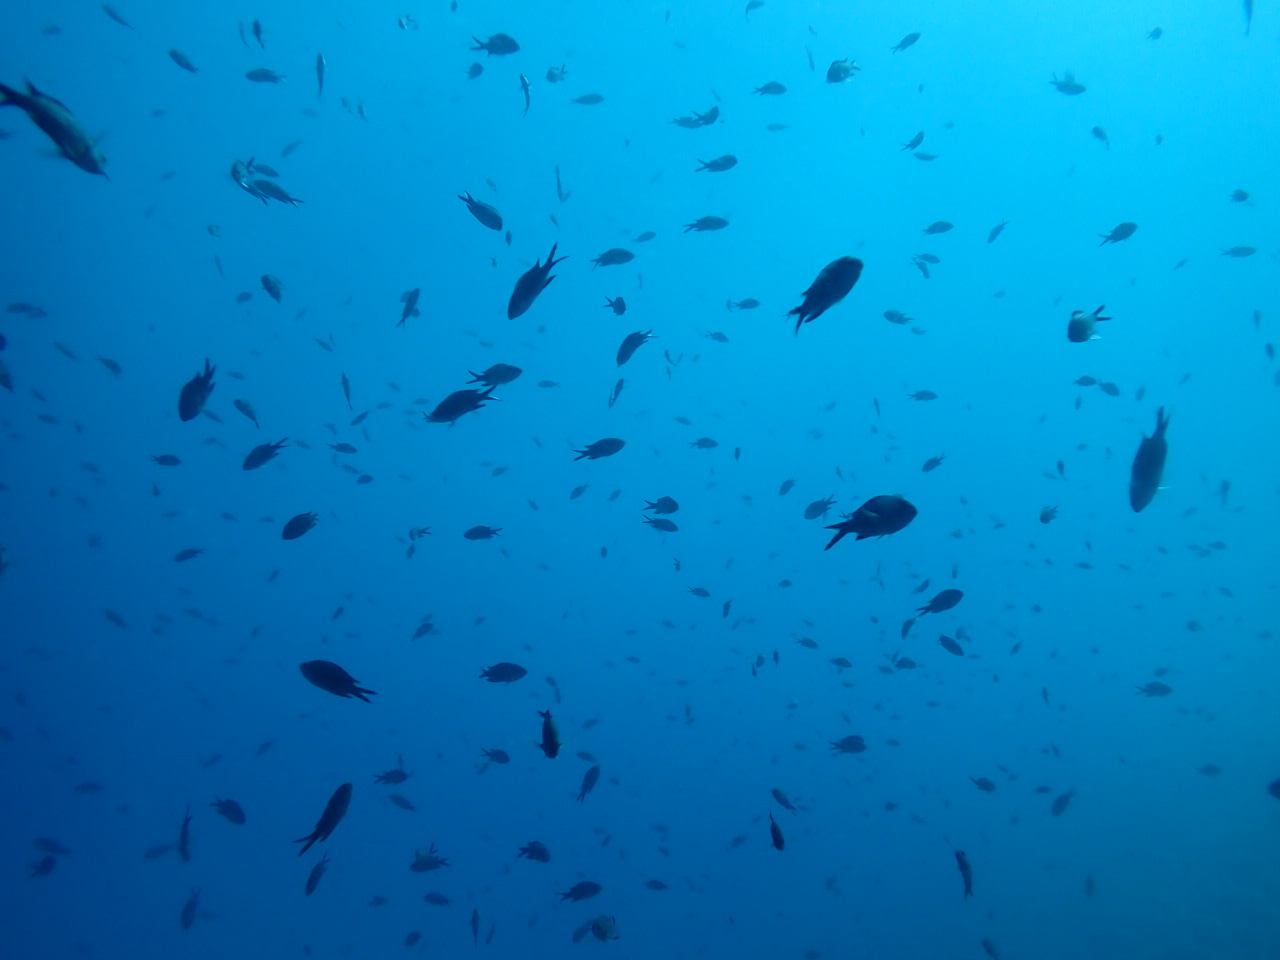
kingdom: Animalia
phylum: Chordata
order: Perciformes
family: Pomacentridae
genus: Chromis
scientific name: Chromis chromis
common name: Damselfish
